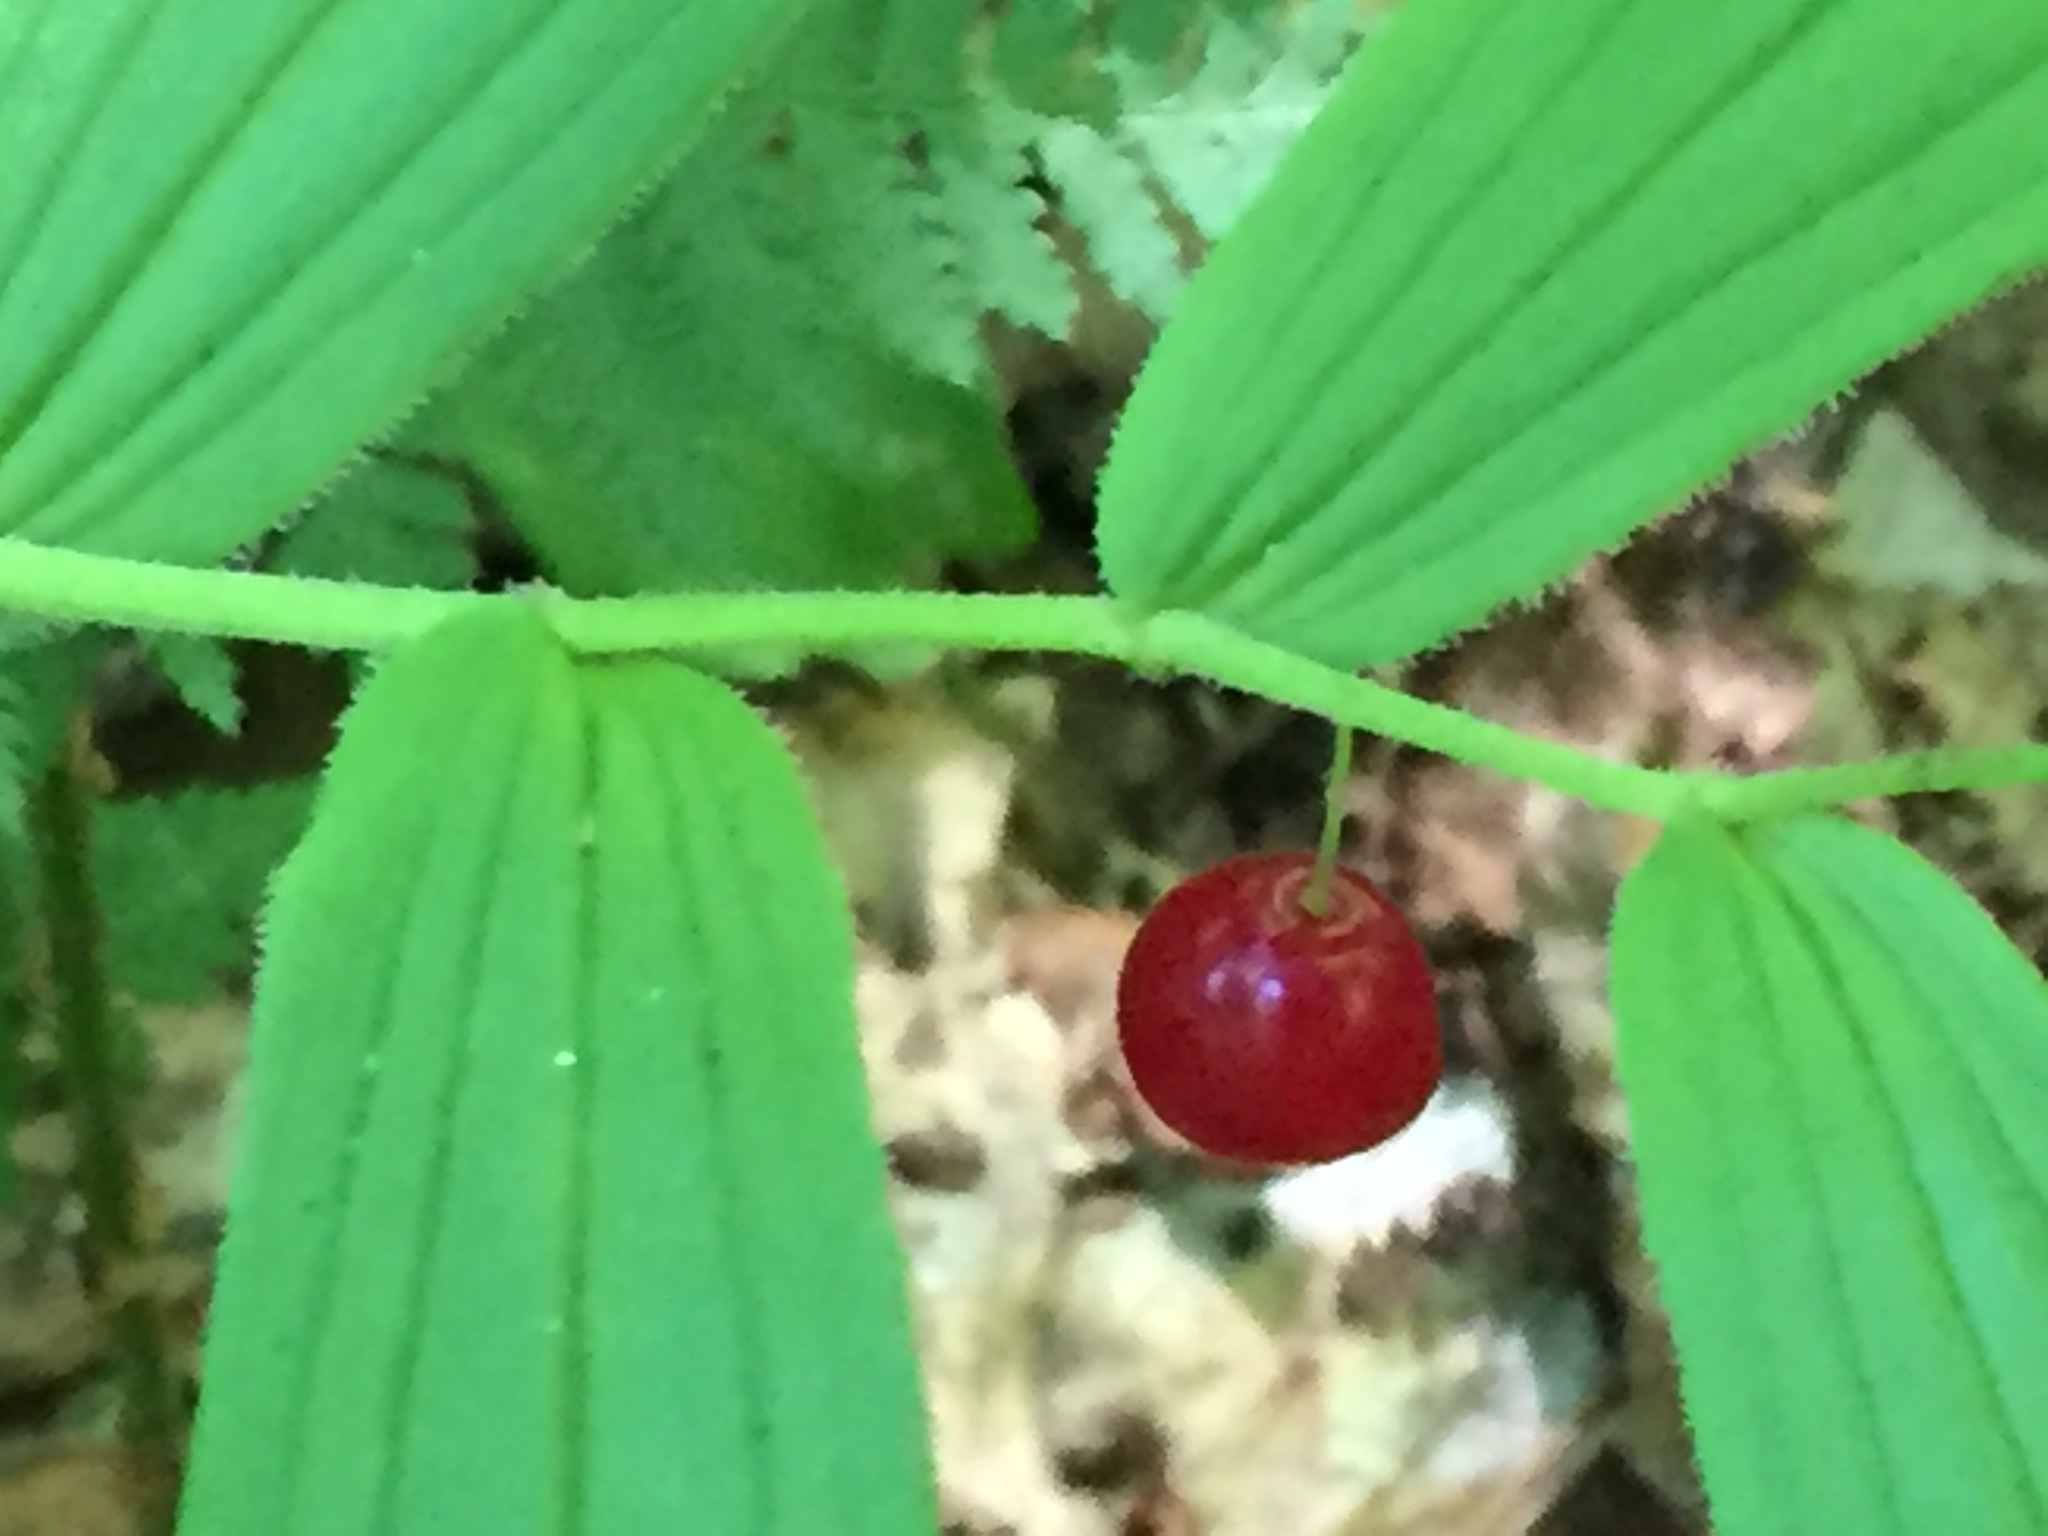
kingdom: Plantae
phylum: Tracheophyta
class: Liliopsida
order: Liliales
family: Liliaceae
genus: Streptopus
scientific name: Streptopus lanceolatus
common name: Rose mandarin
